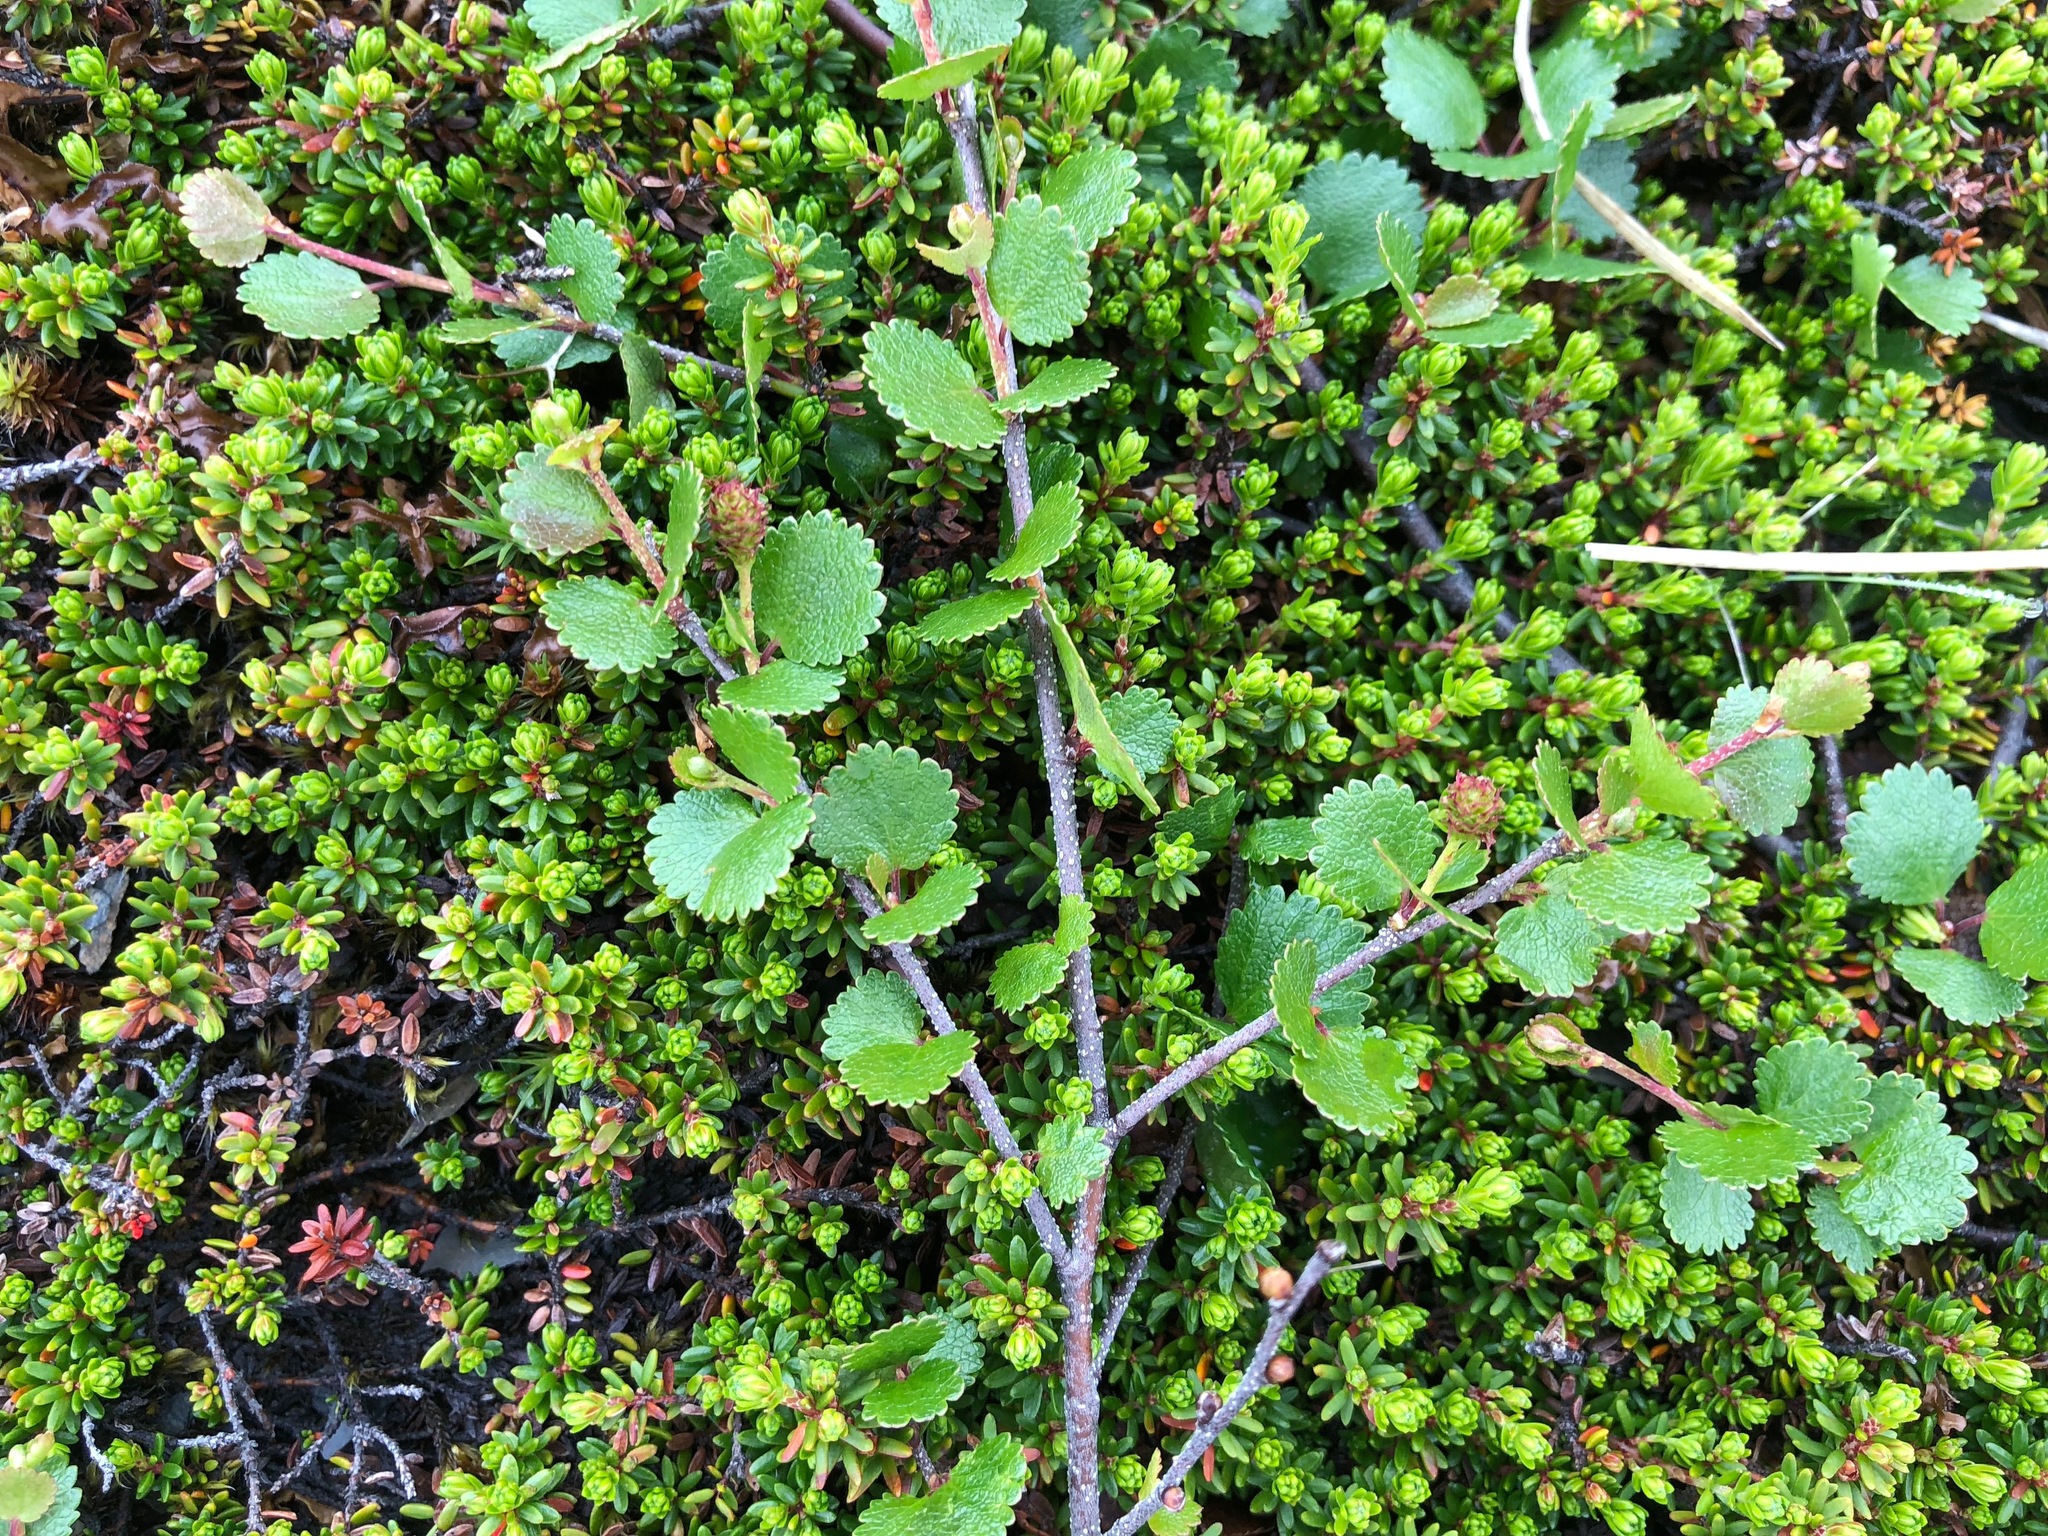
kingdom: Plantae
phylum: Tracheophyta
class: Magnoliopsida
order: Fagales
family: Betulaceae
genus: Betula
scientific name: Betula nana
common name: Arctic dwarf birch
